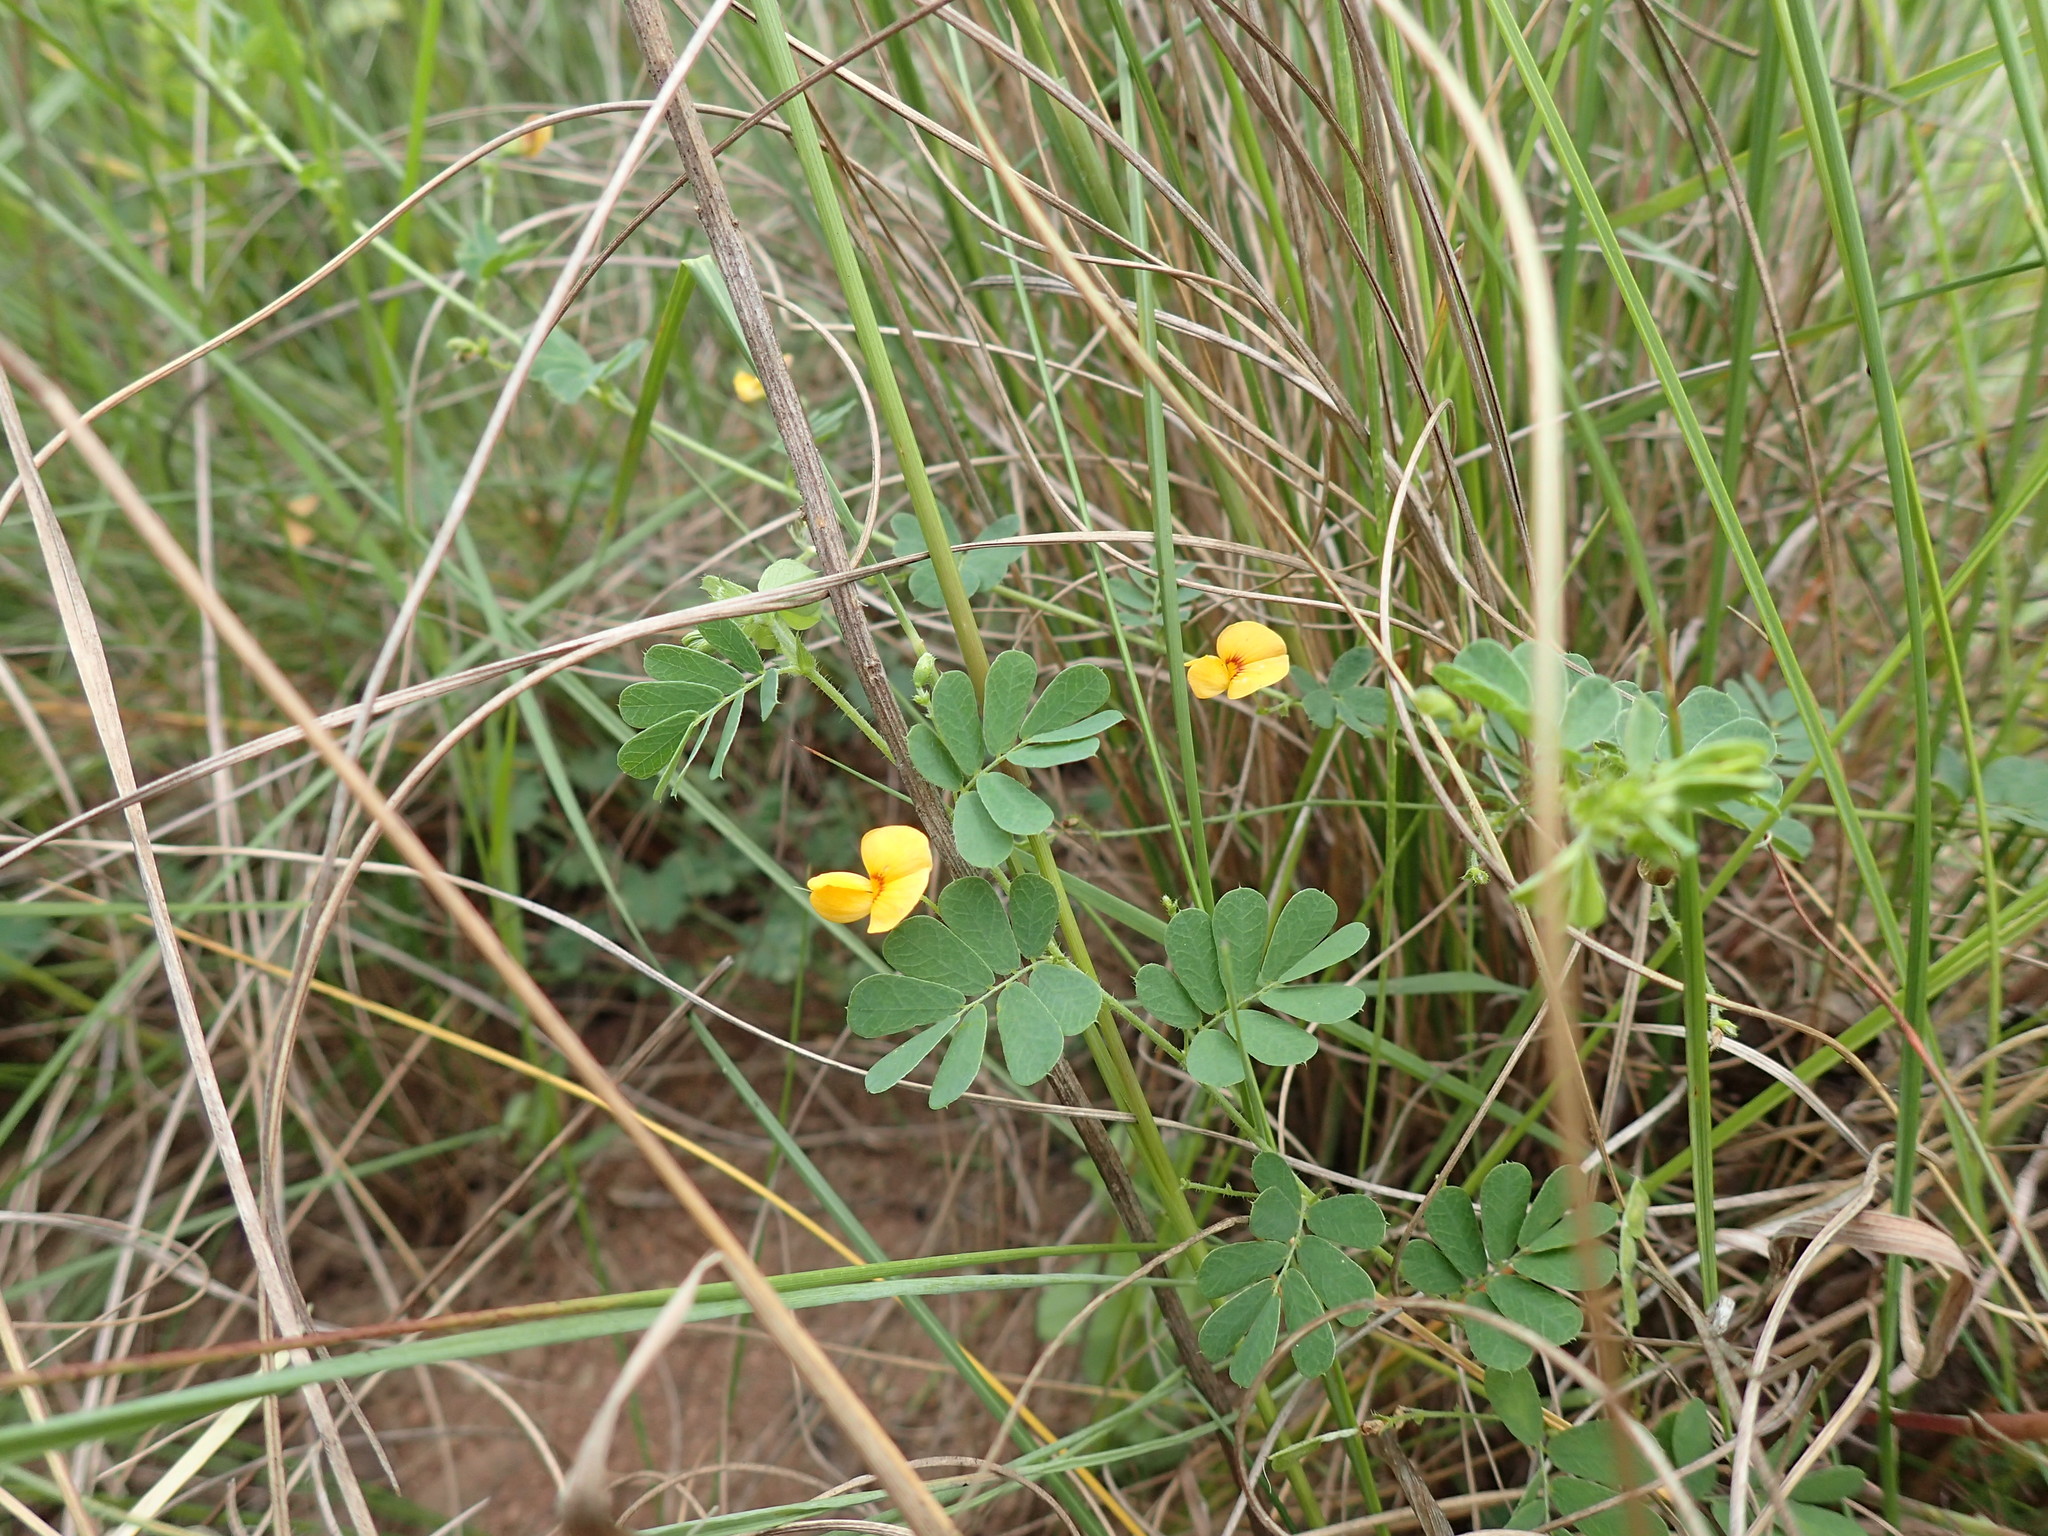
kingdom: Plantae
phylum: Tracheophyta
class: Magnoliopsida
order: Fabales
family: Fabaceae
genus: Aeschynomene
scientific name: Aeschynomene brevifolia
